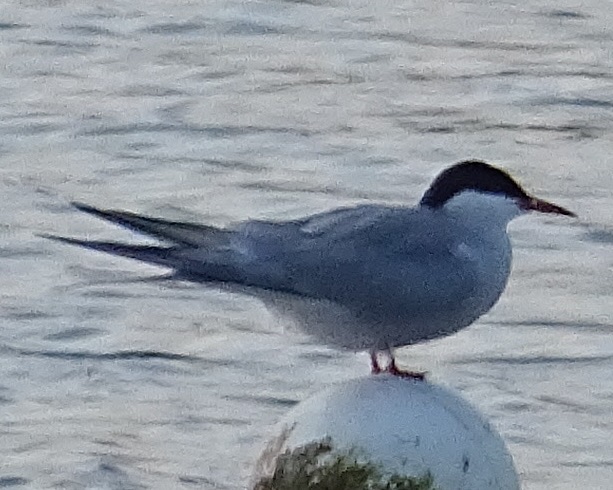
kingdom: Animalia
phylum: Chordata
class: Aves
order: Charadriiformes
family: Laridae
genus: Sterna
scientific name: Sterna hirundo
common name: Common tern
